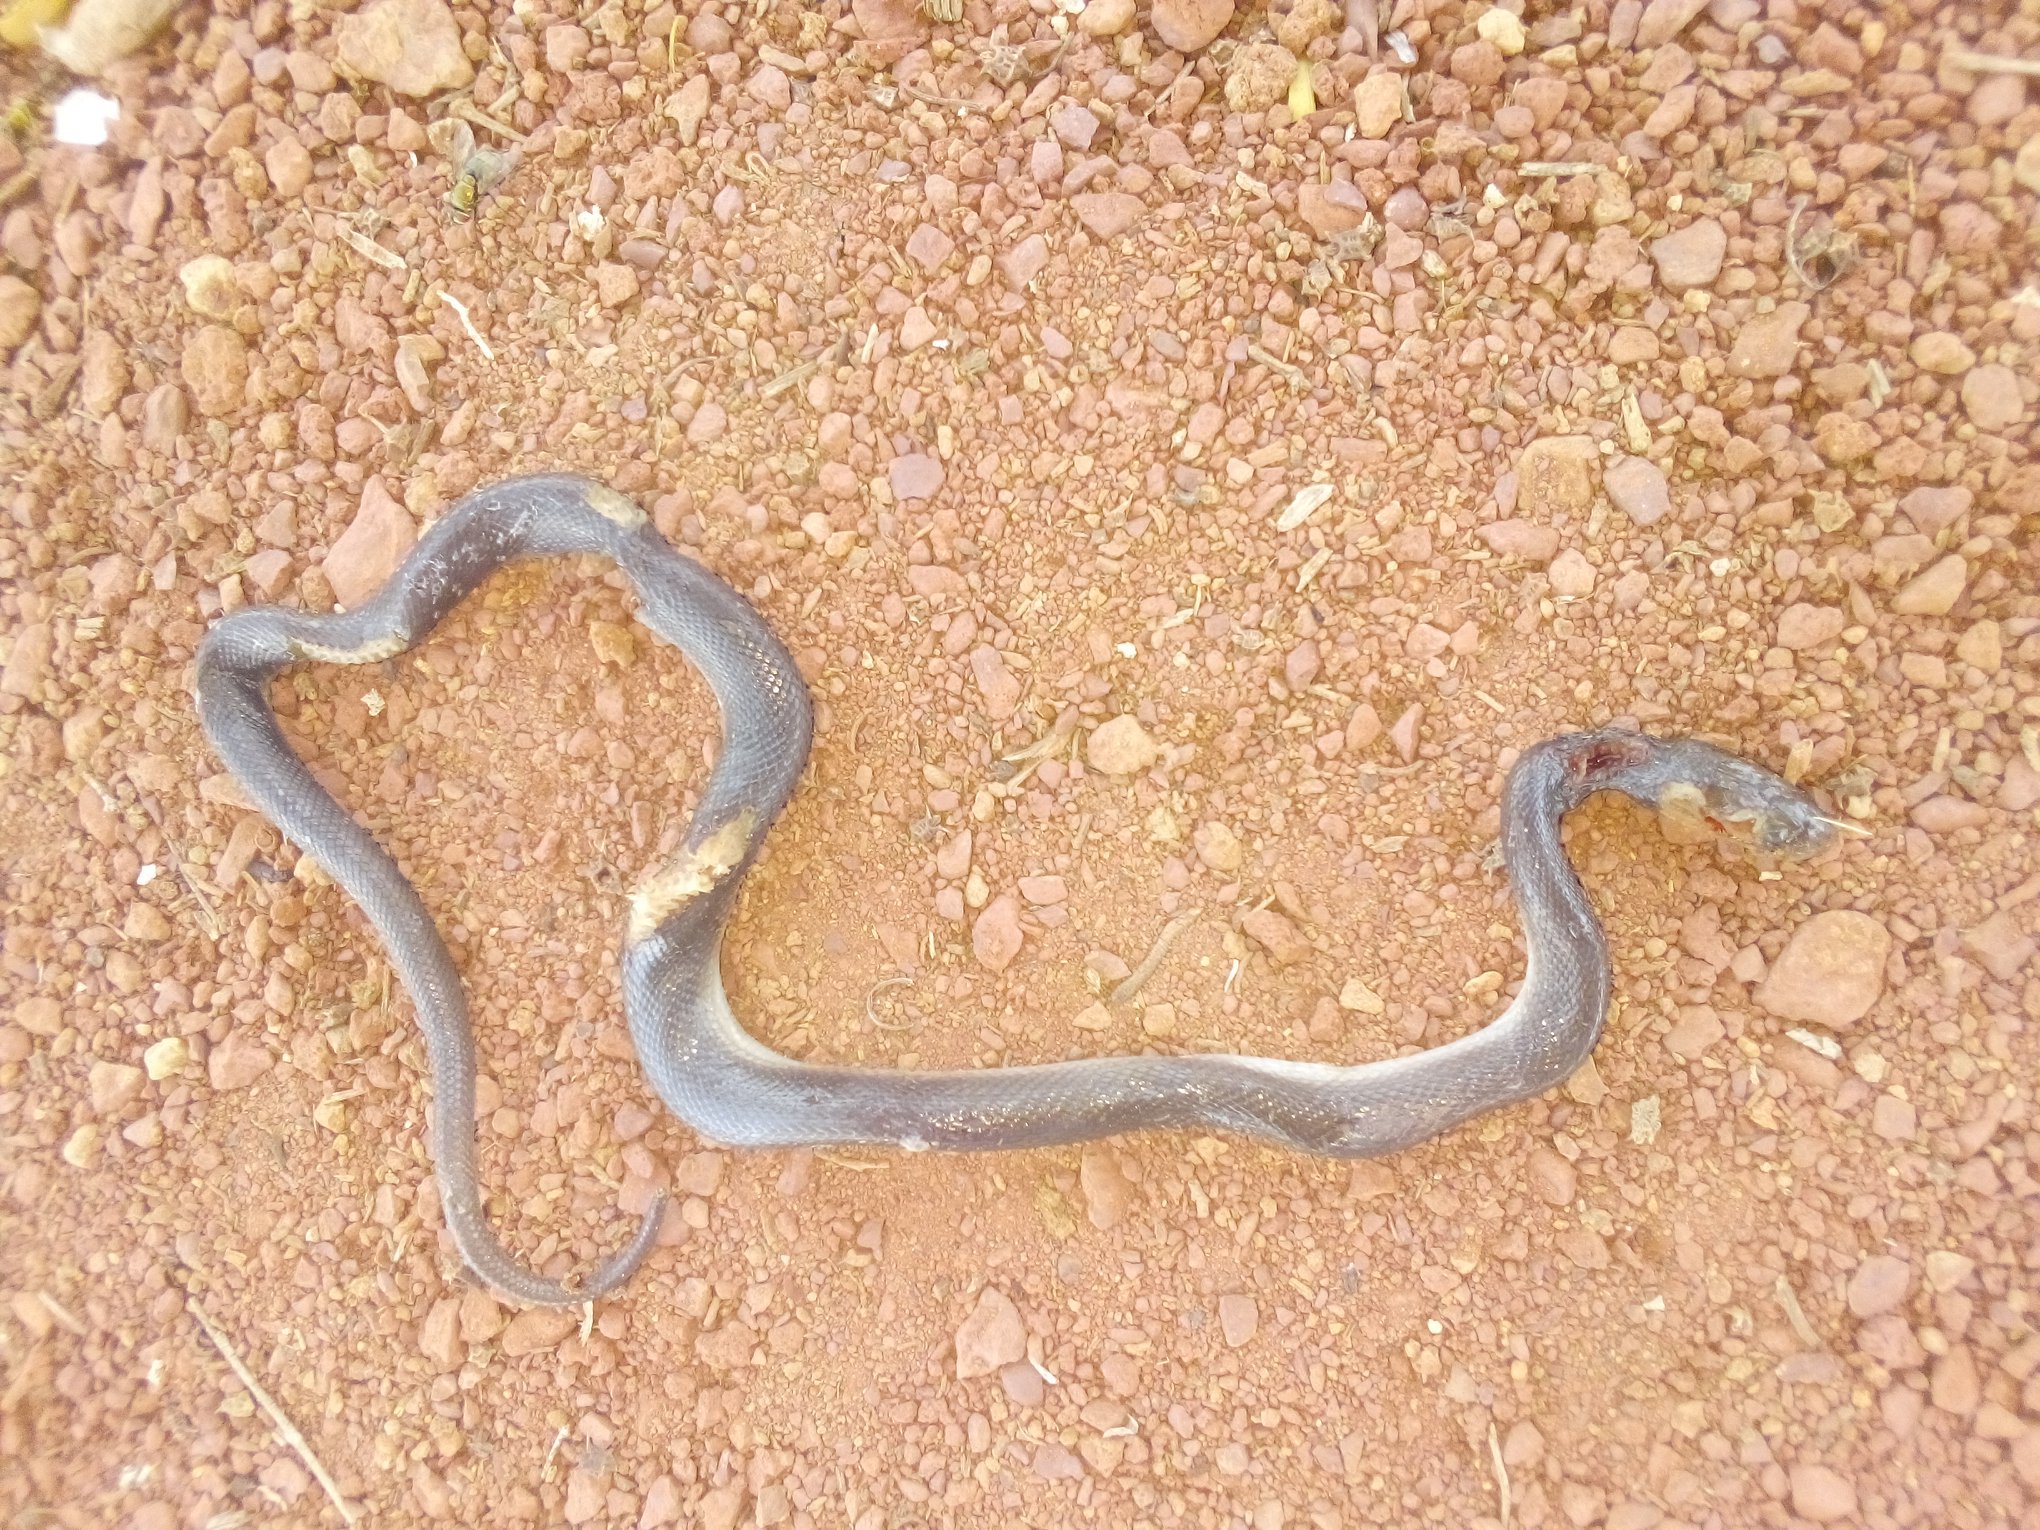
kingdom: Animalia
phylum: Chordata
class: Squamata
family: Lamprophiidae
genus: Boaedon
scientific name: Boaedon fuliginosus
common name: African house snake
